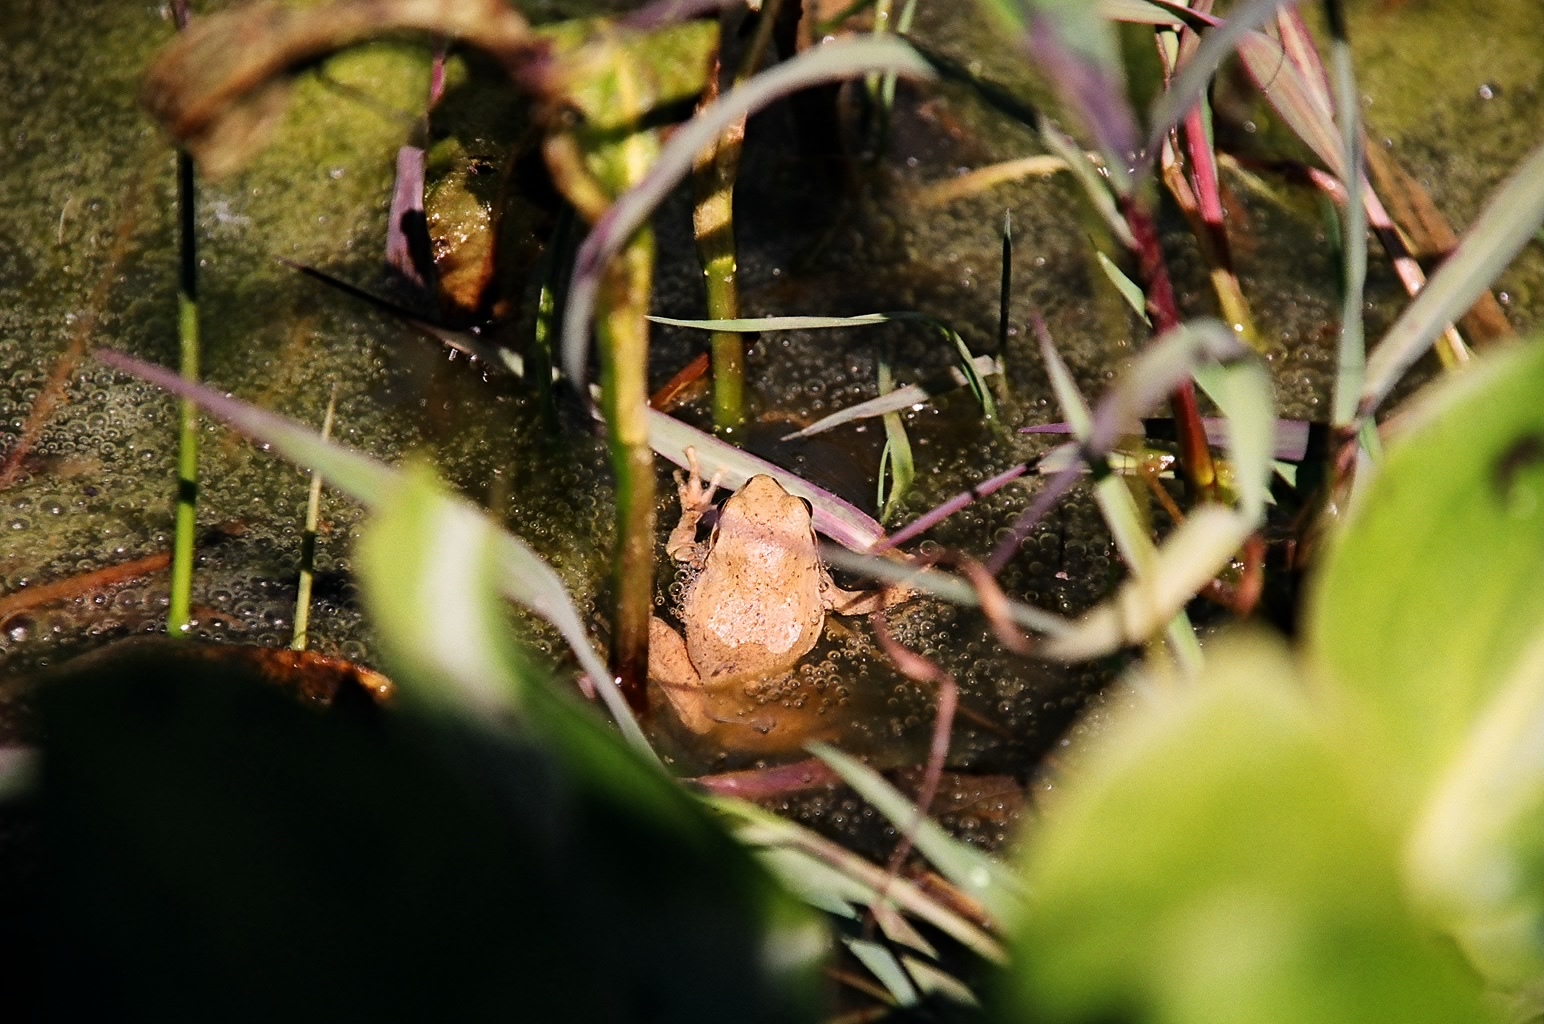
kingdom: Animalia
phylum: Chordata
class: Amphibia
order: Anura
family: Hylidae
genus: Pseudacris
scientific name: Pseudacris regilla
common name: Pacific chorus frog
